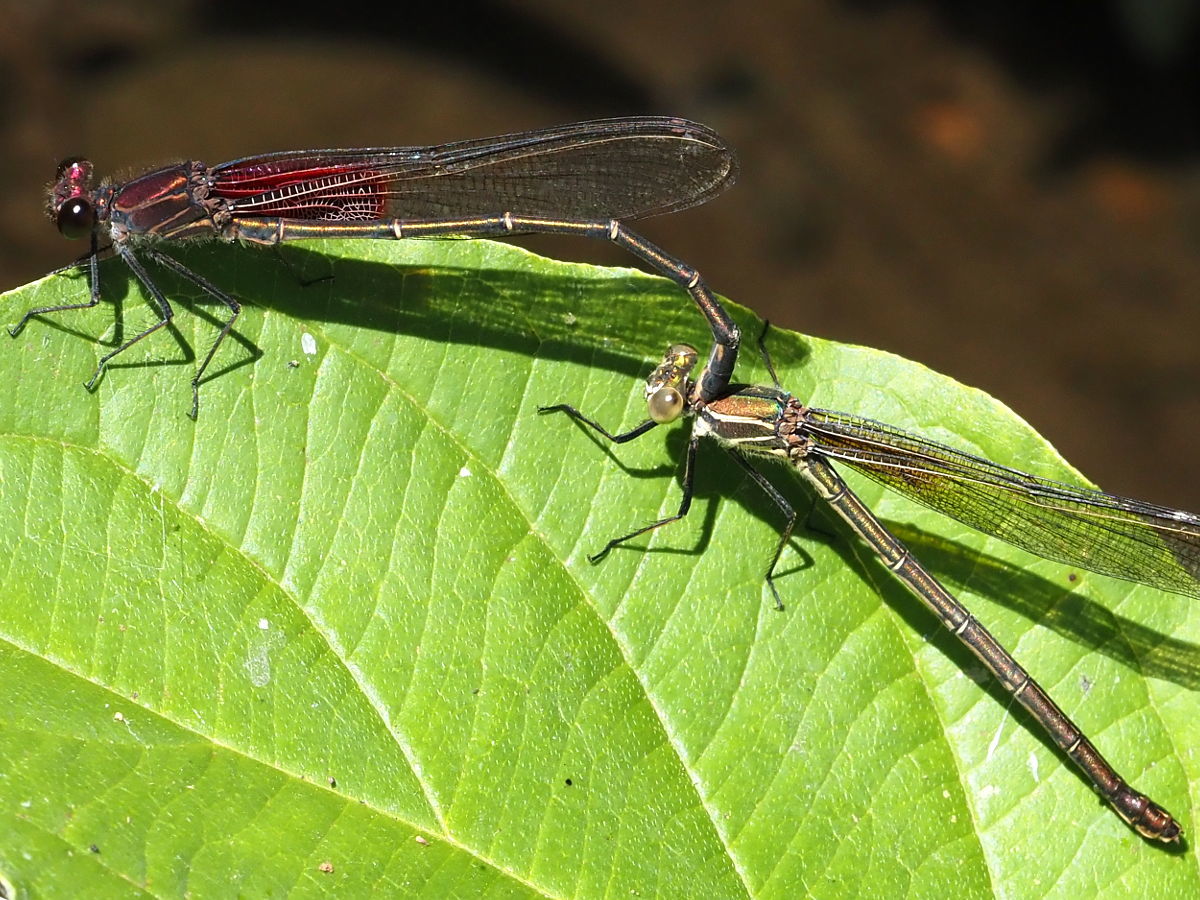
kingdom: Animalia
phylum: Arthropoda
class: Insecta
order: Odonata
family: Calopterygidae
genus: Hetaerina
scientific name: Hetaerina americana
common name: American rubyspot
